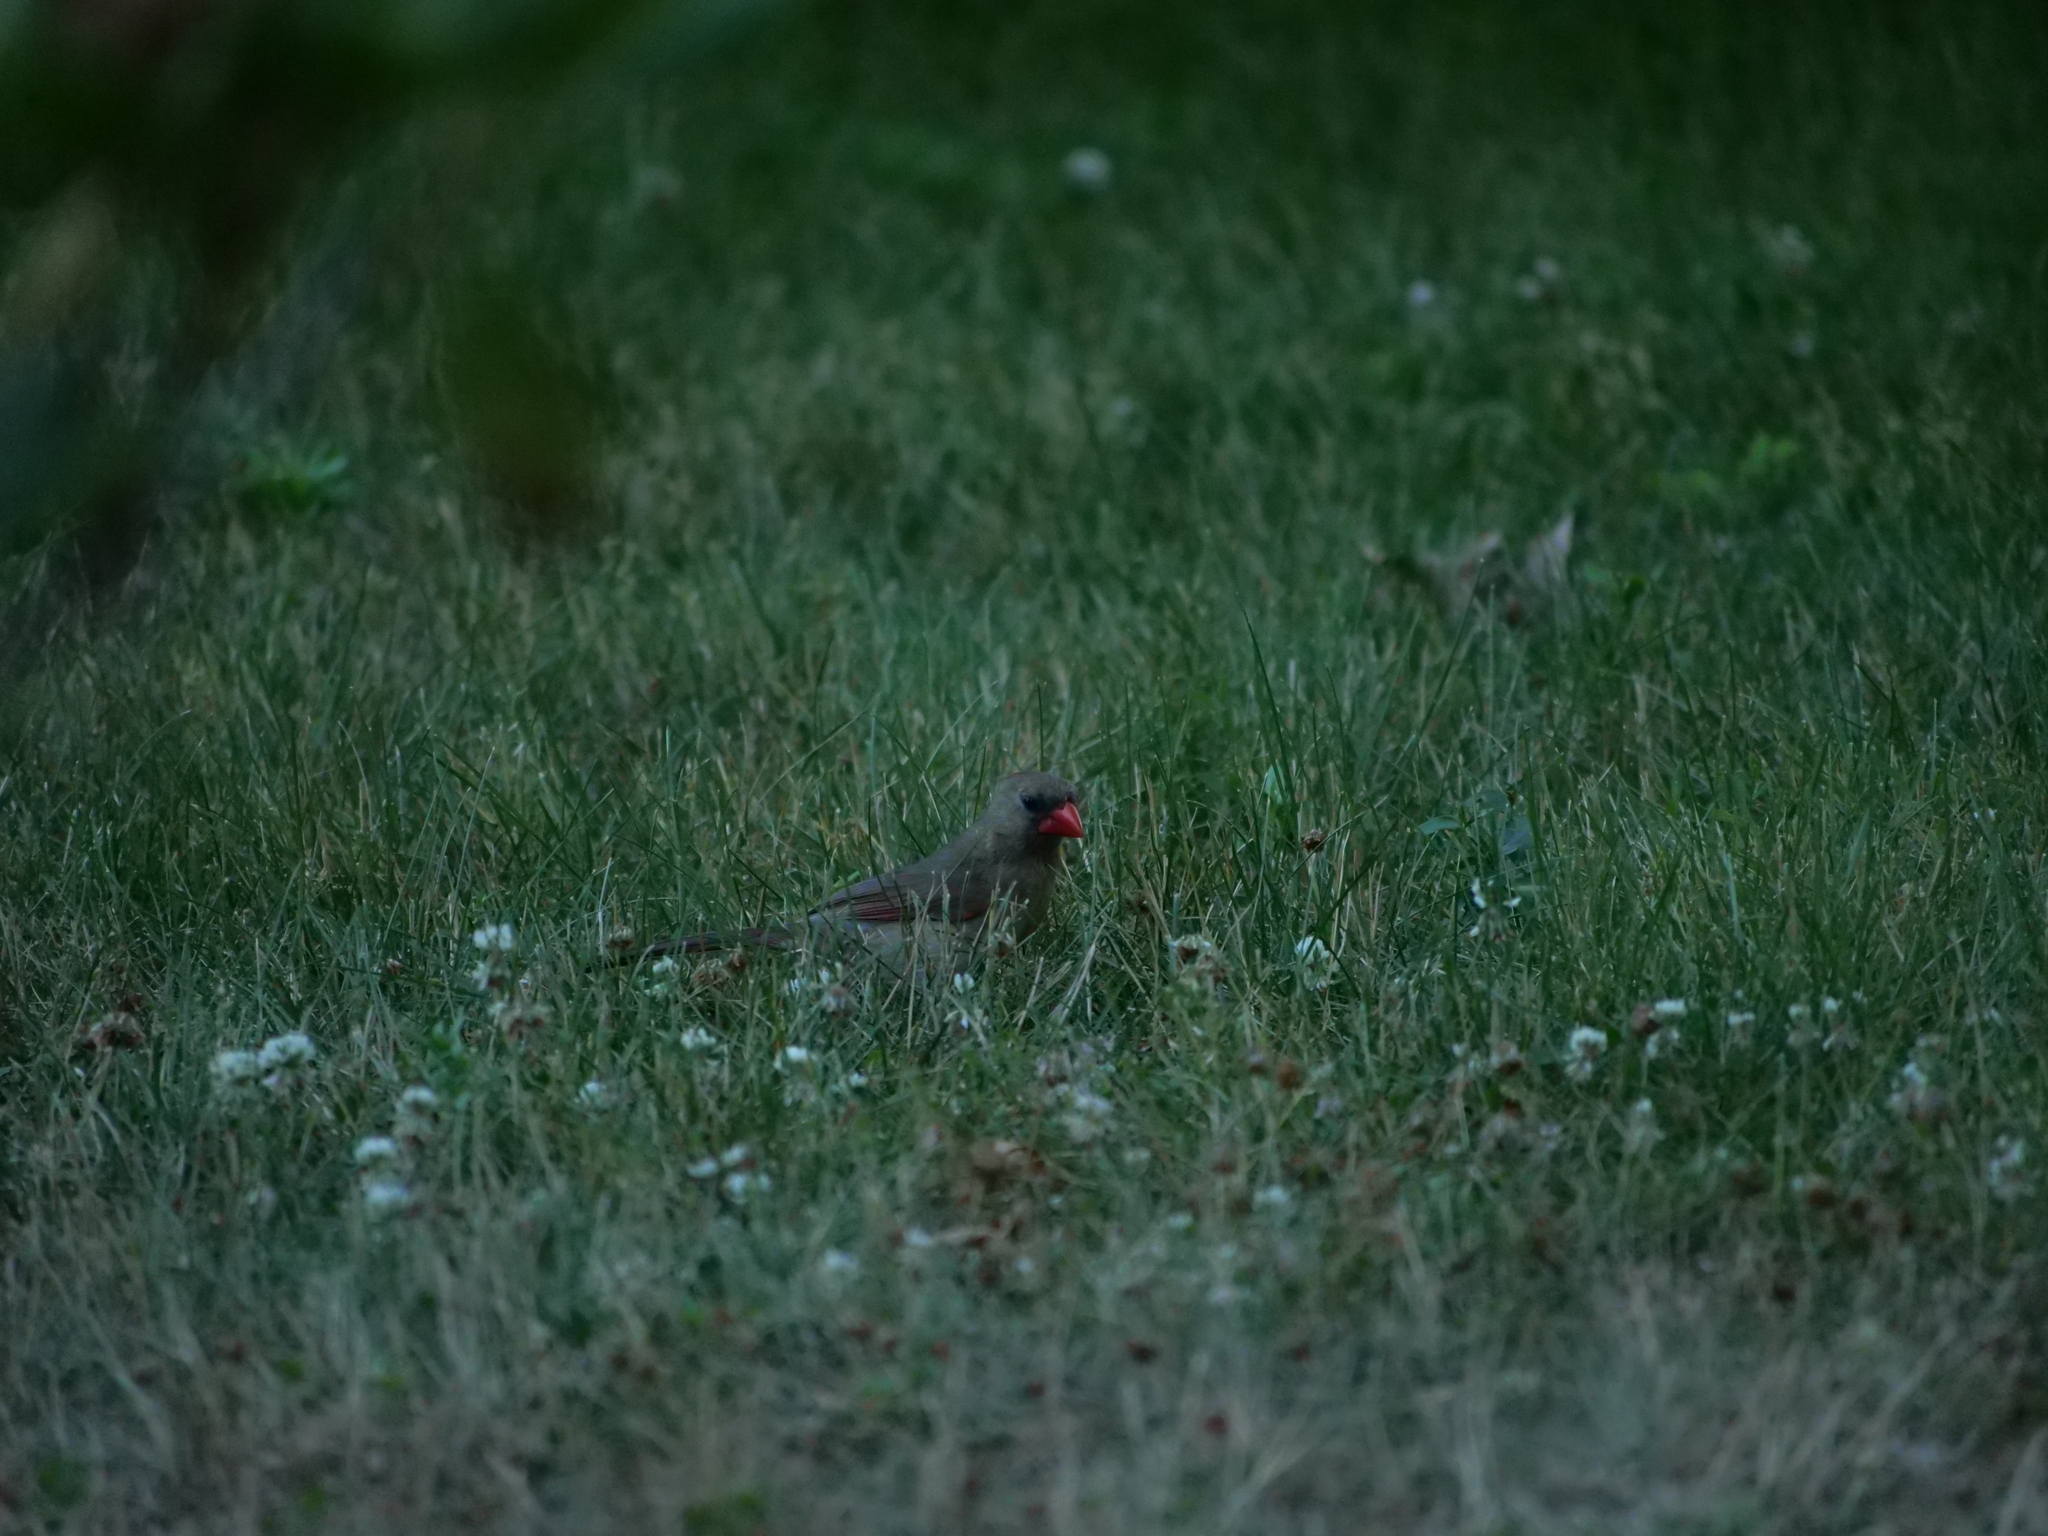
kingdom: Animalia
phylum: Chordata
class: Aves
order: Passeriformes
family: Cardinalidae
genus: Cardinalis
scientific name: Cardinalis cardinalis
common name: Northern cardinal
